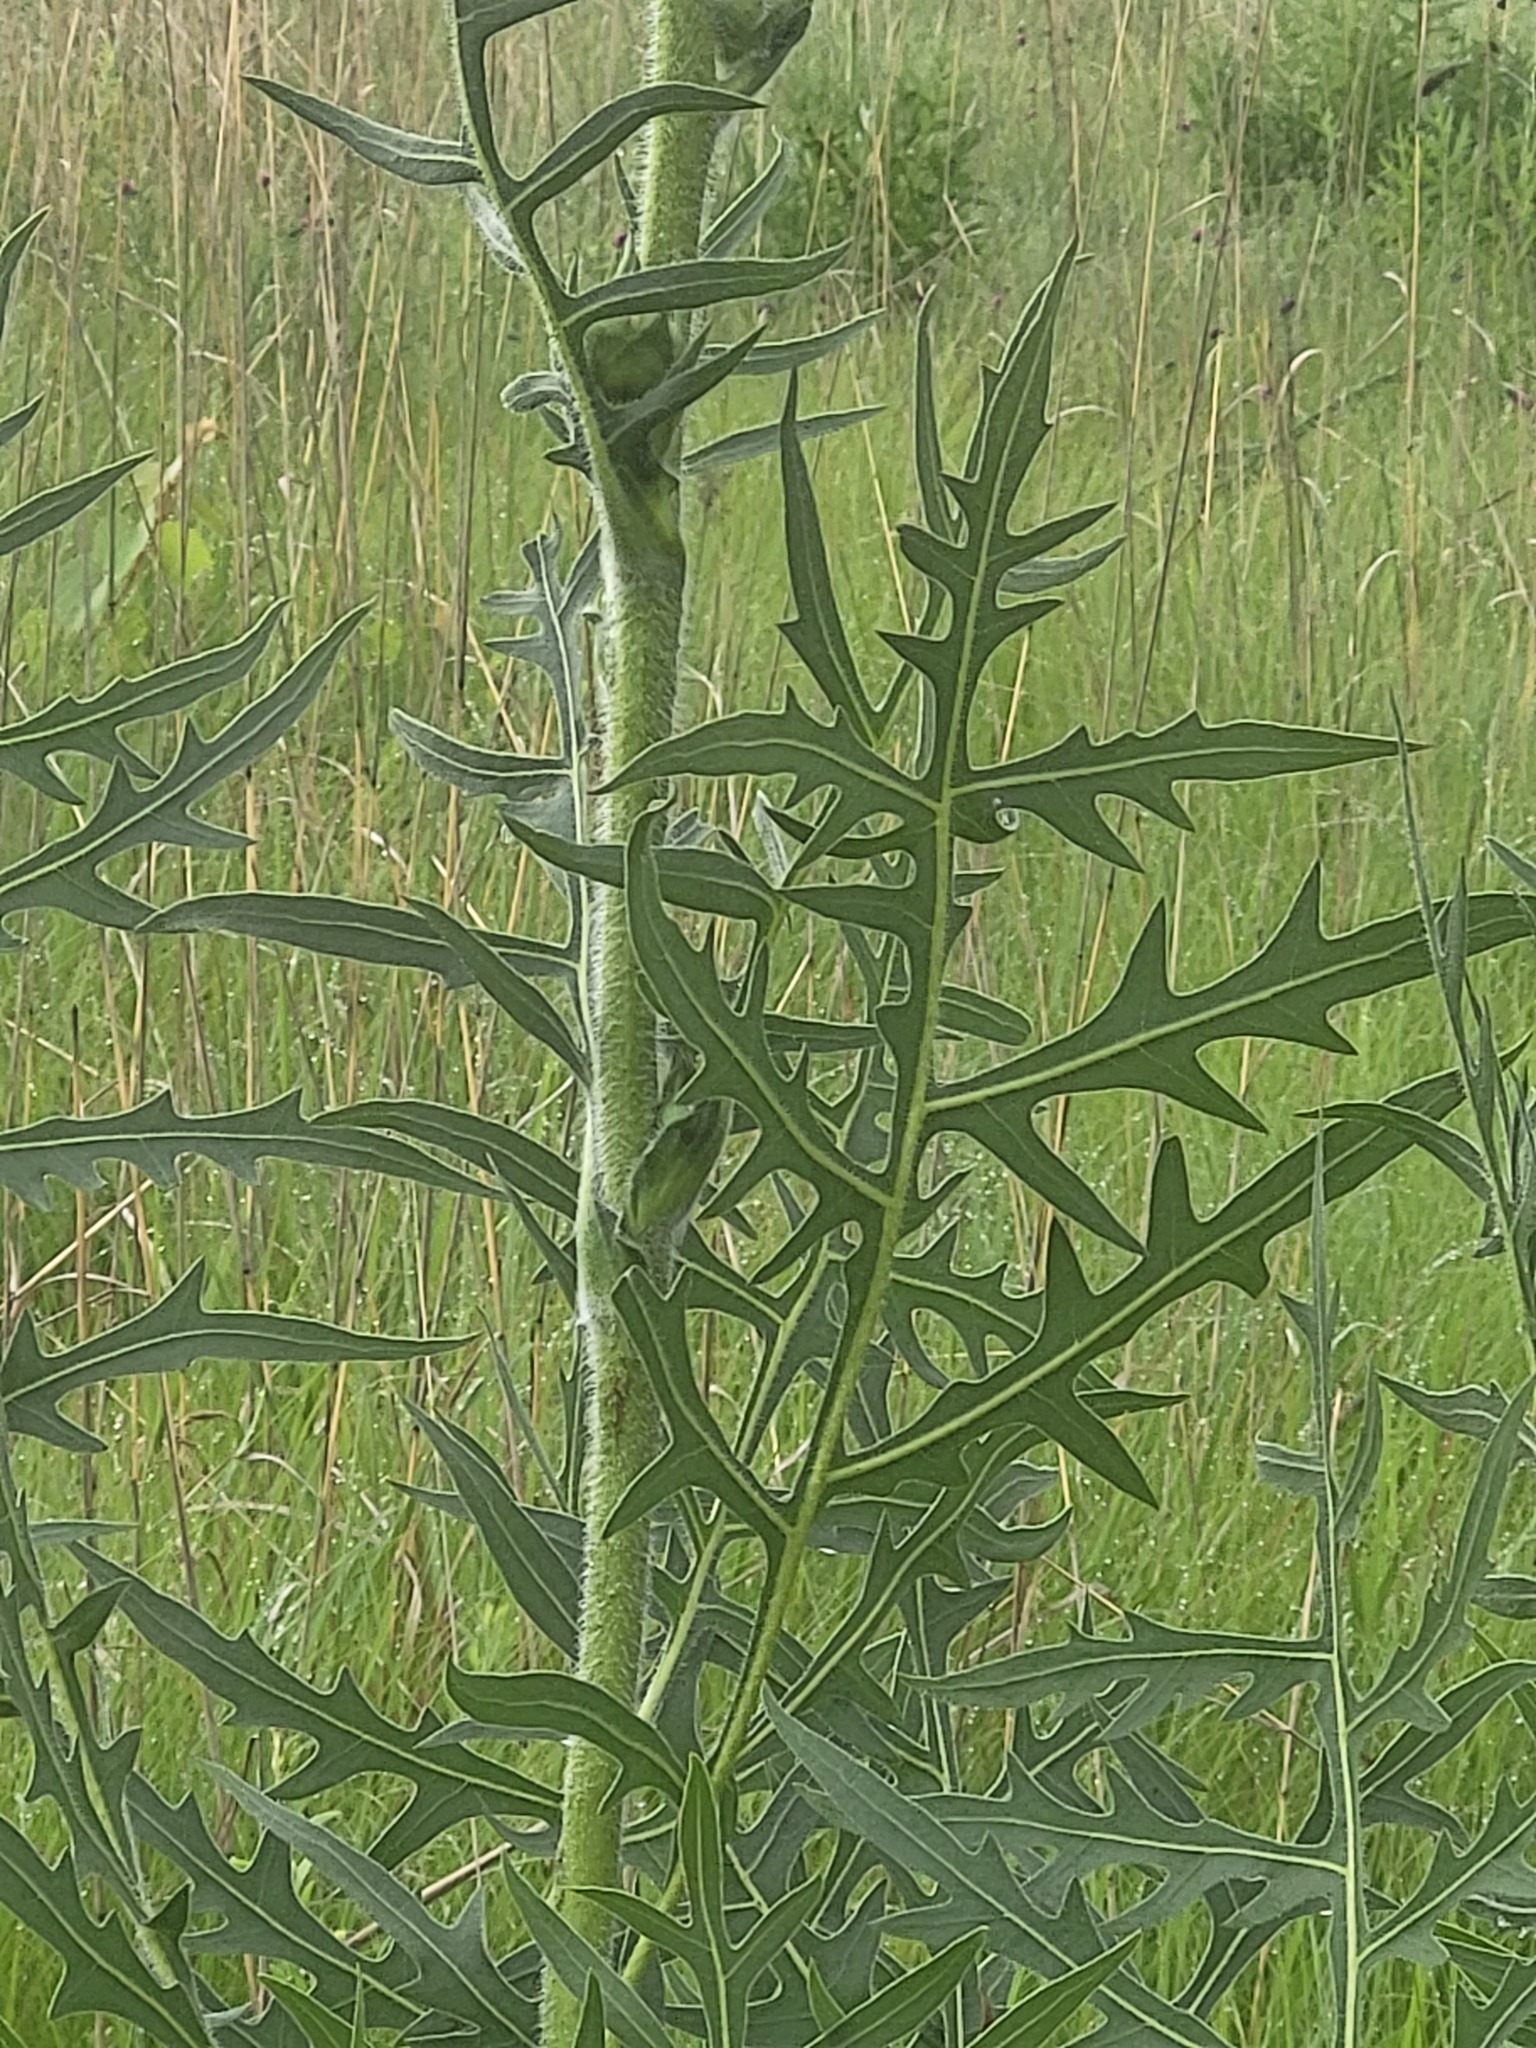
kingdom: Plantae
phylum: Tracheophyta
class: Magnoliopsida
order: Asterales
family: Asteraceae
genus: Silphium
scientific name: Silphium laciniatum
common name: Polarplant
